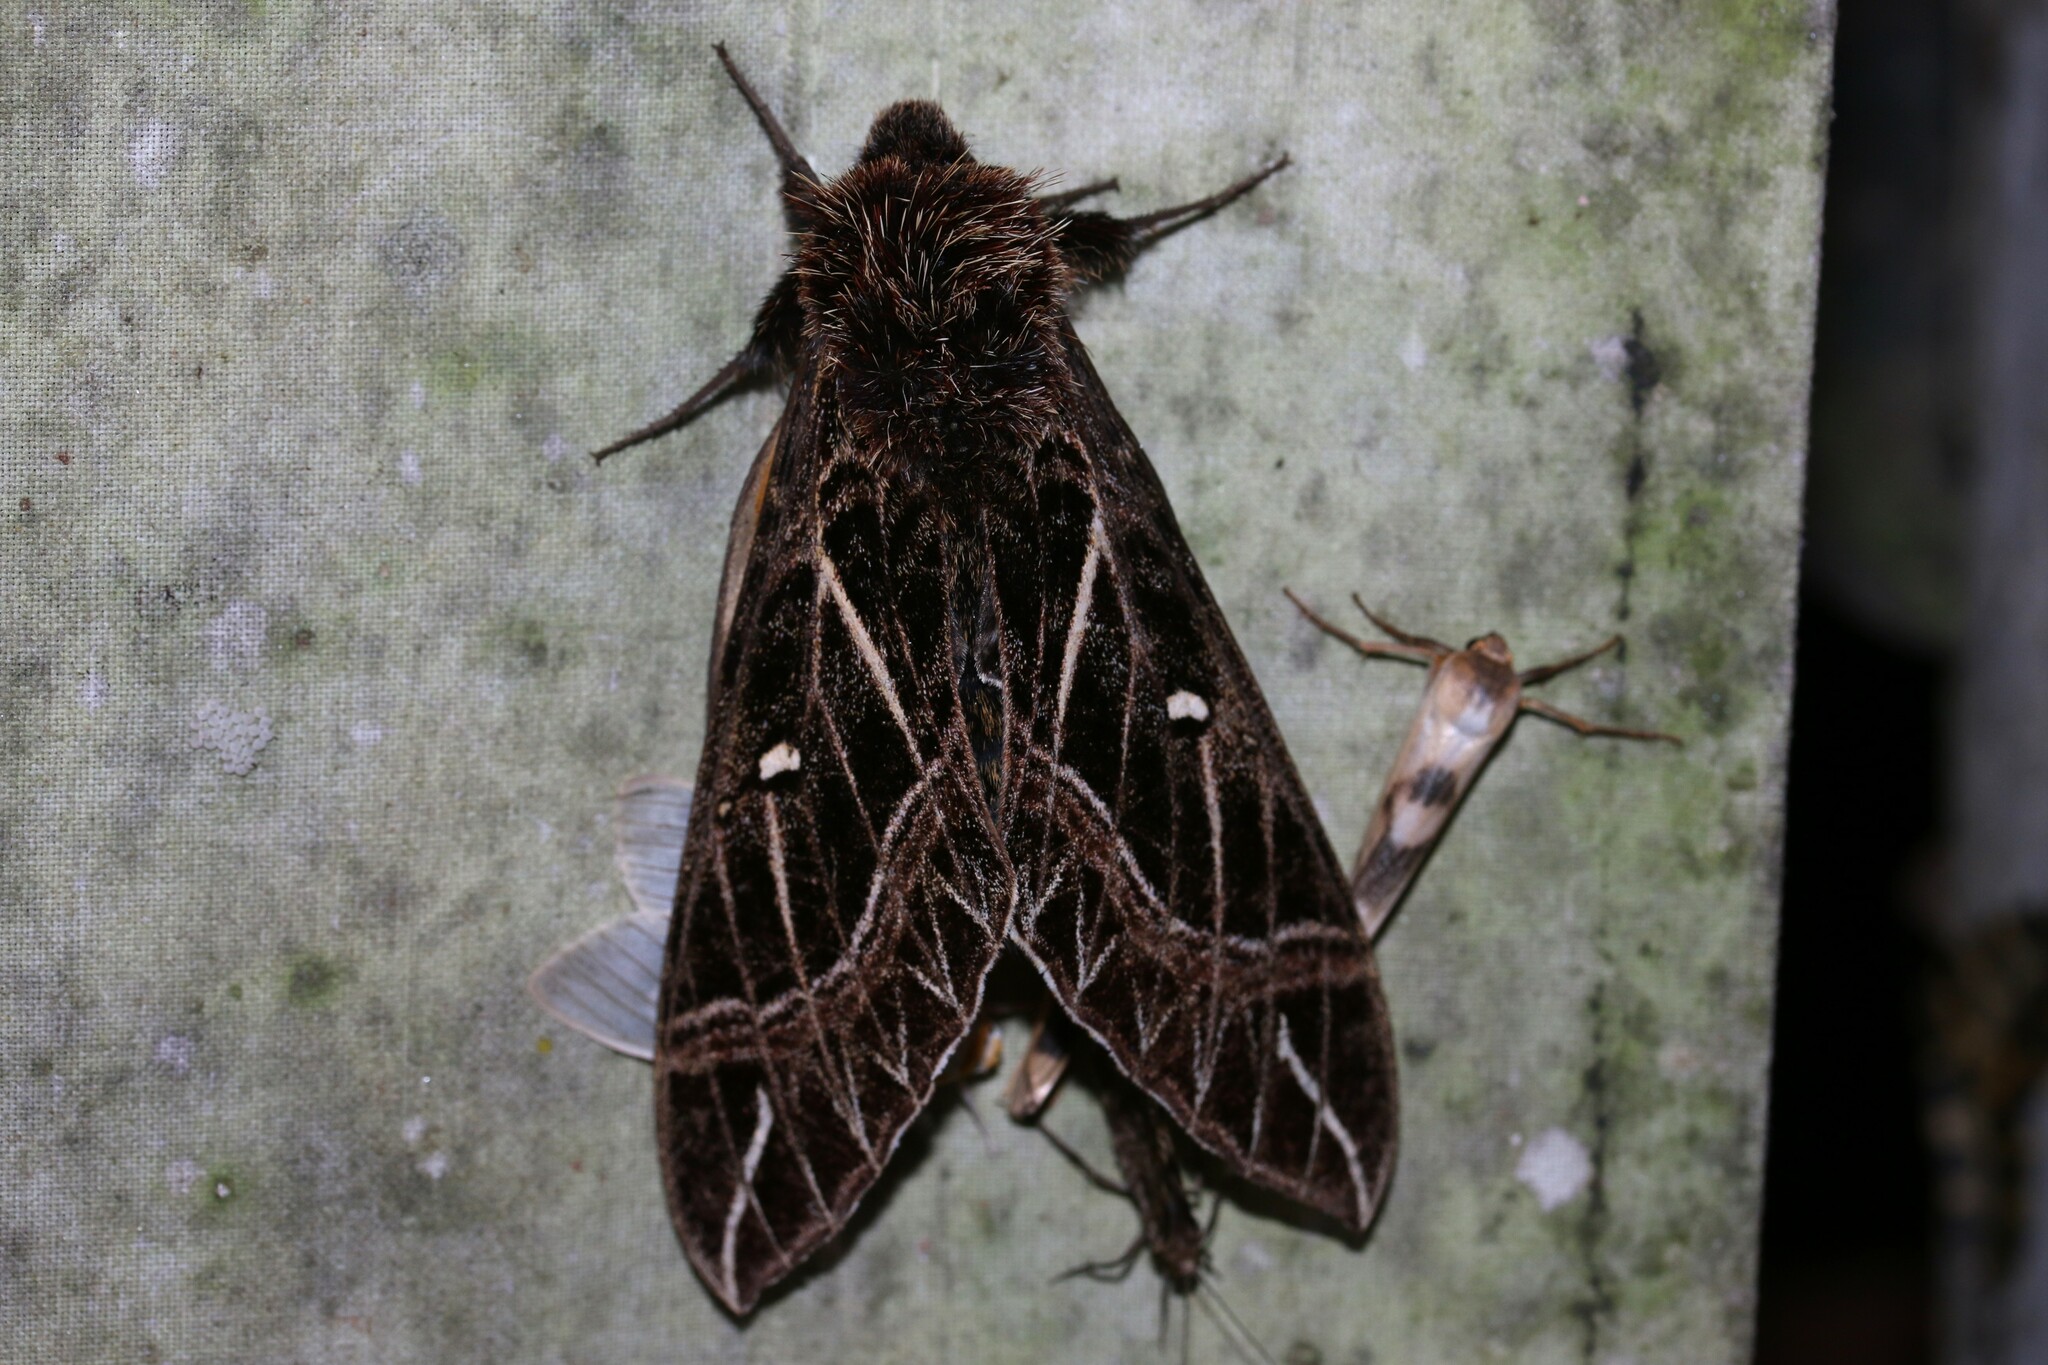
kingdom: Animalia
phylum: Arthropoda
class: Insecta
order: Lepidoptera
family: Sphingidae
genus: Euryglottis
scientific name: Euryglottis aper
